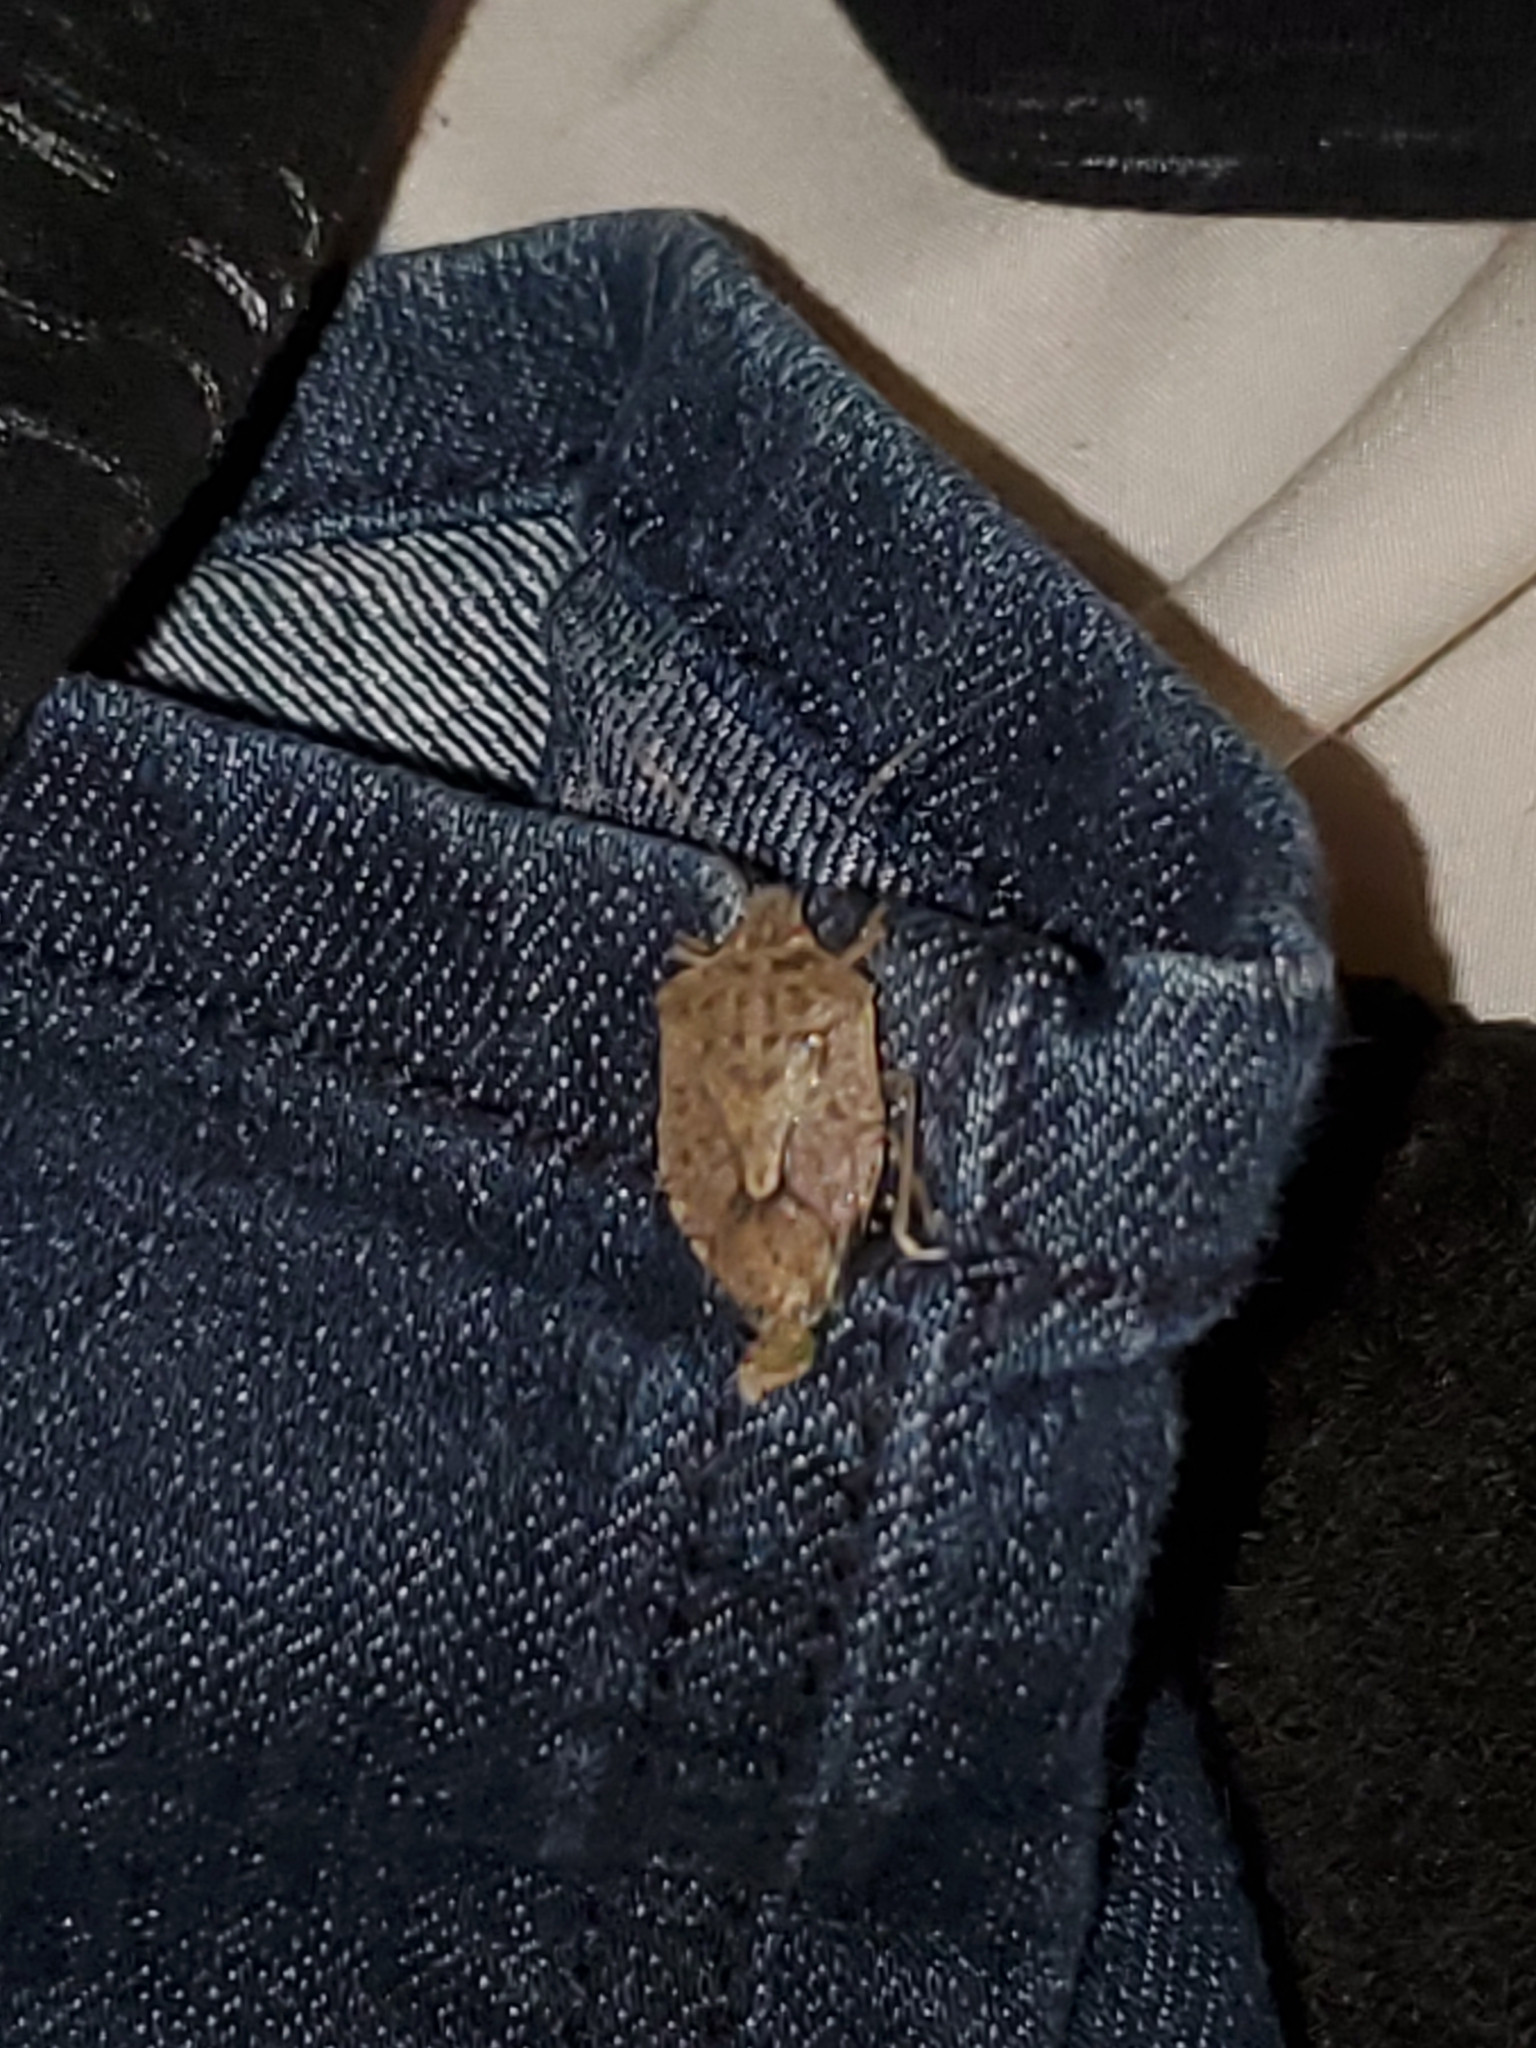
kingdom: Animalia
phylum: Arthropoda
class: Insecta
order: Hemiptera
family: Pentatomidae
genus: Halyomorpha
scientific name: Halyomorpha halys
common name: Brown marmorated stink bug
